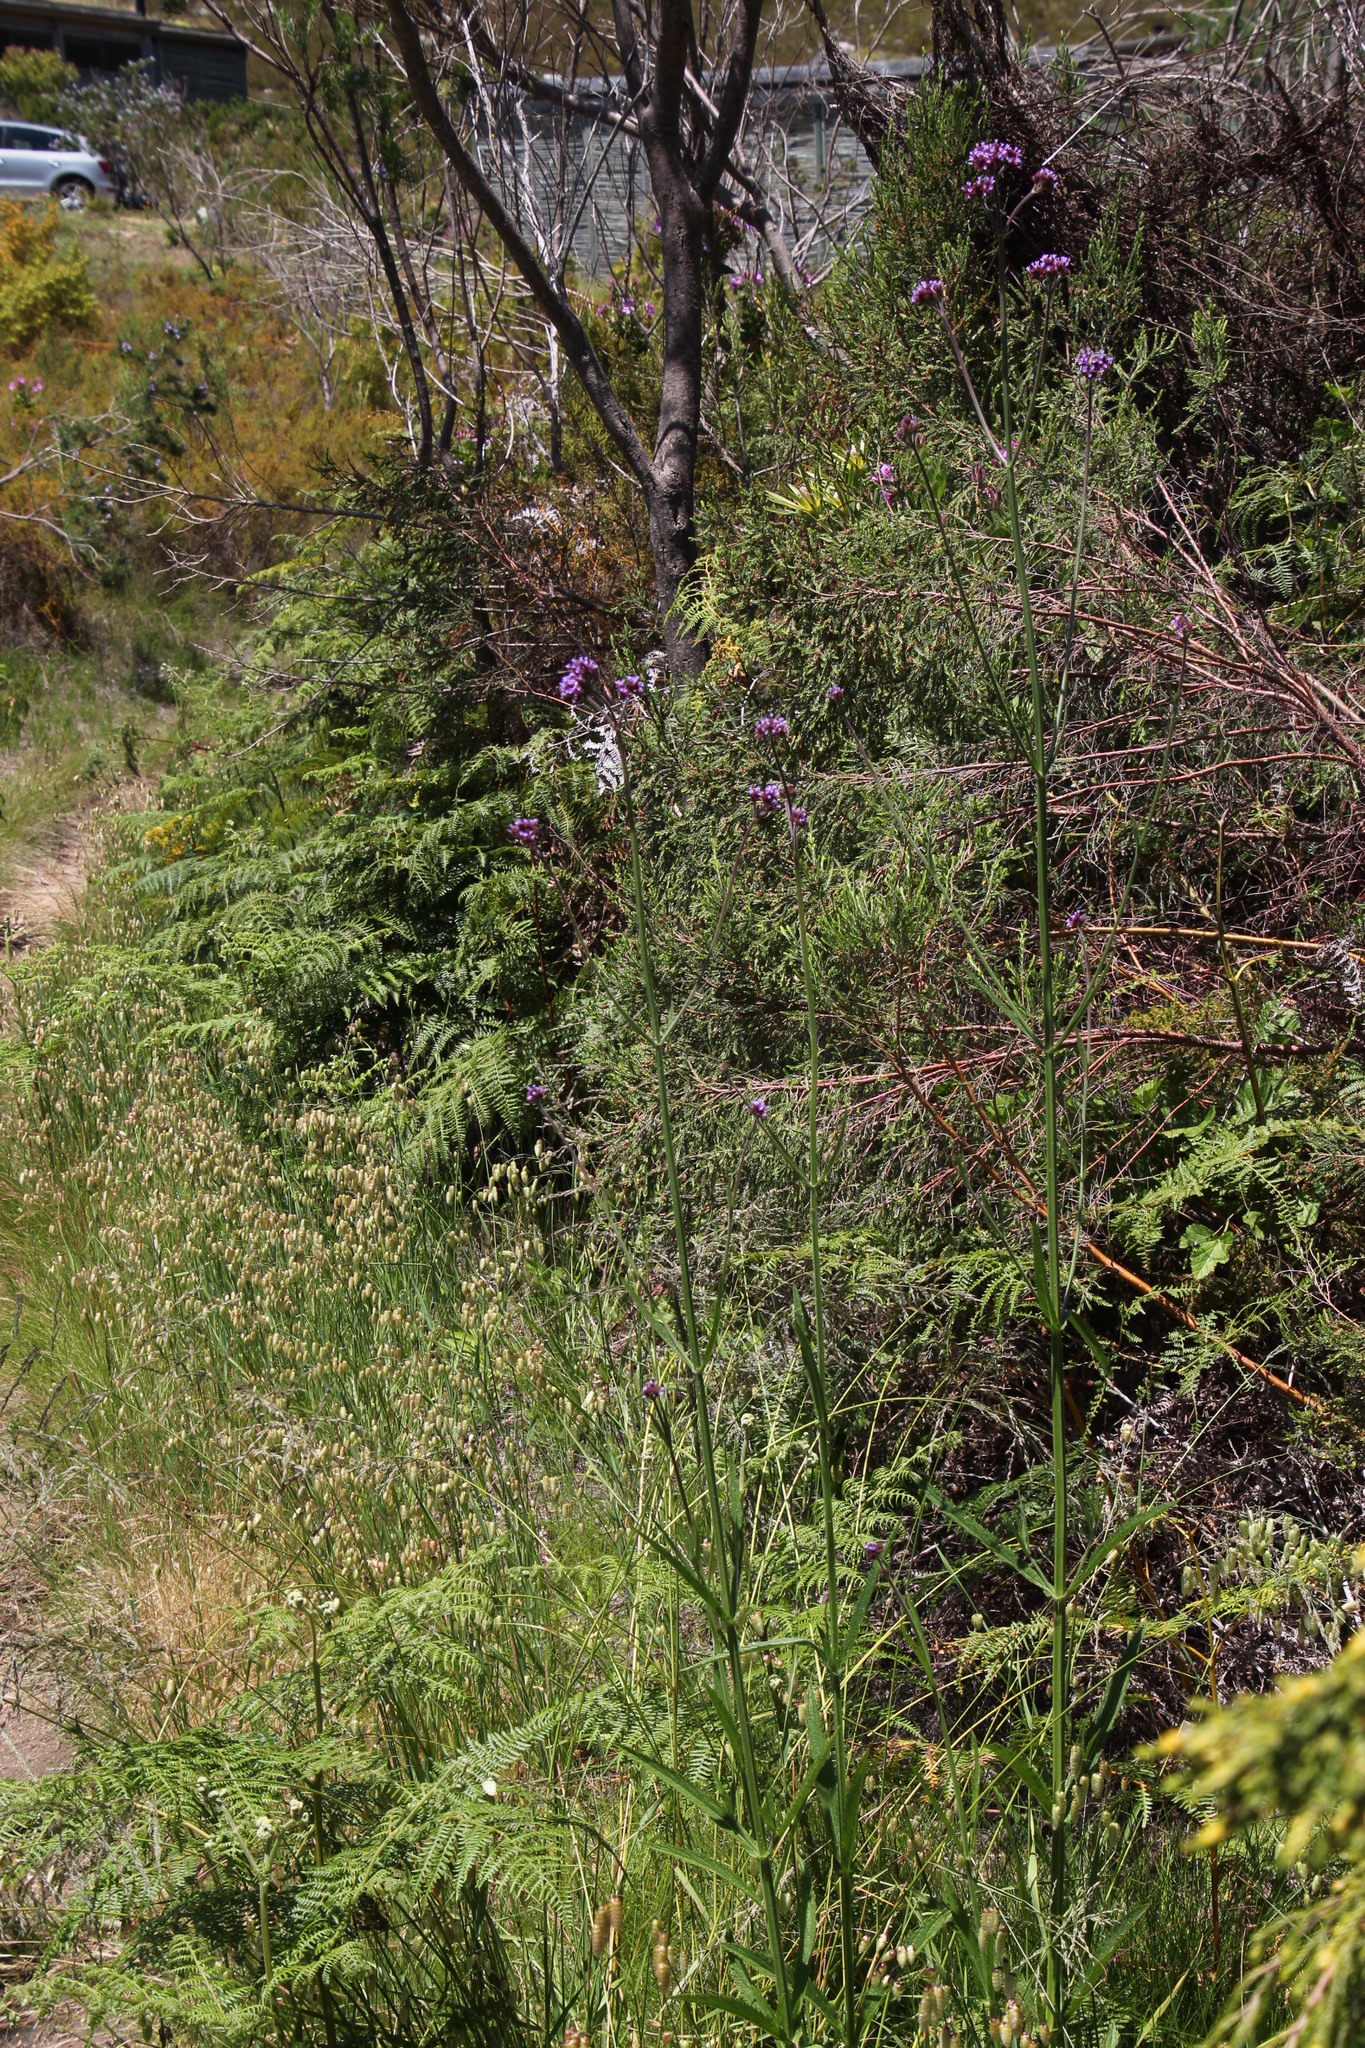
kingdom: Plantae
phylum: Tracheophyta
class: Magnoliopsida
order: Lamiales
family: Verbenaceae
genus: Verbena
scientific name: Verbena bonariensis
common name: Purpletop vervain
